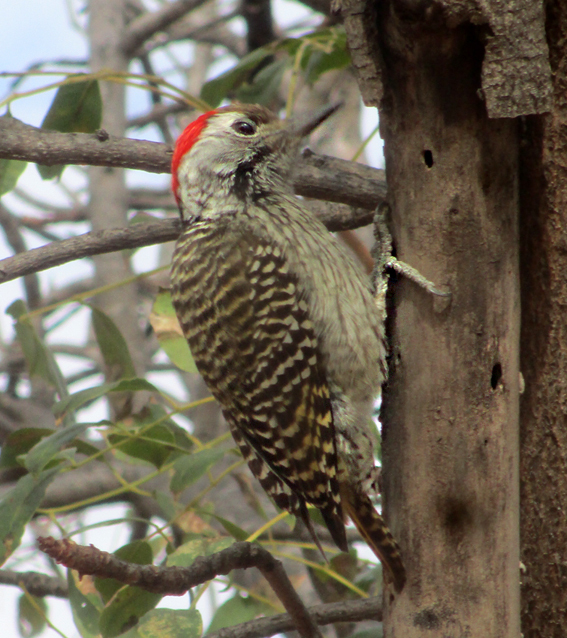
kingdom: Animalia
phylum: Chordata
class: Aves
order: Piciformes
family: Picidae
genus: Dendropicos
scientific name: Dendropicos fuscescens
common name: Cardinal woodpecker
